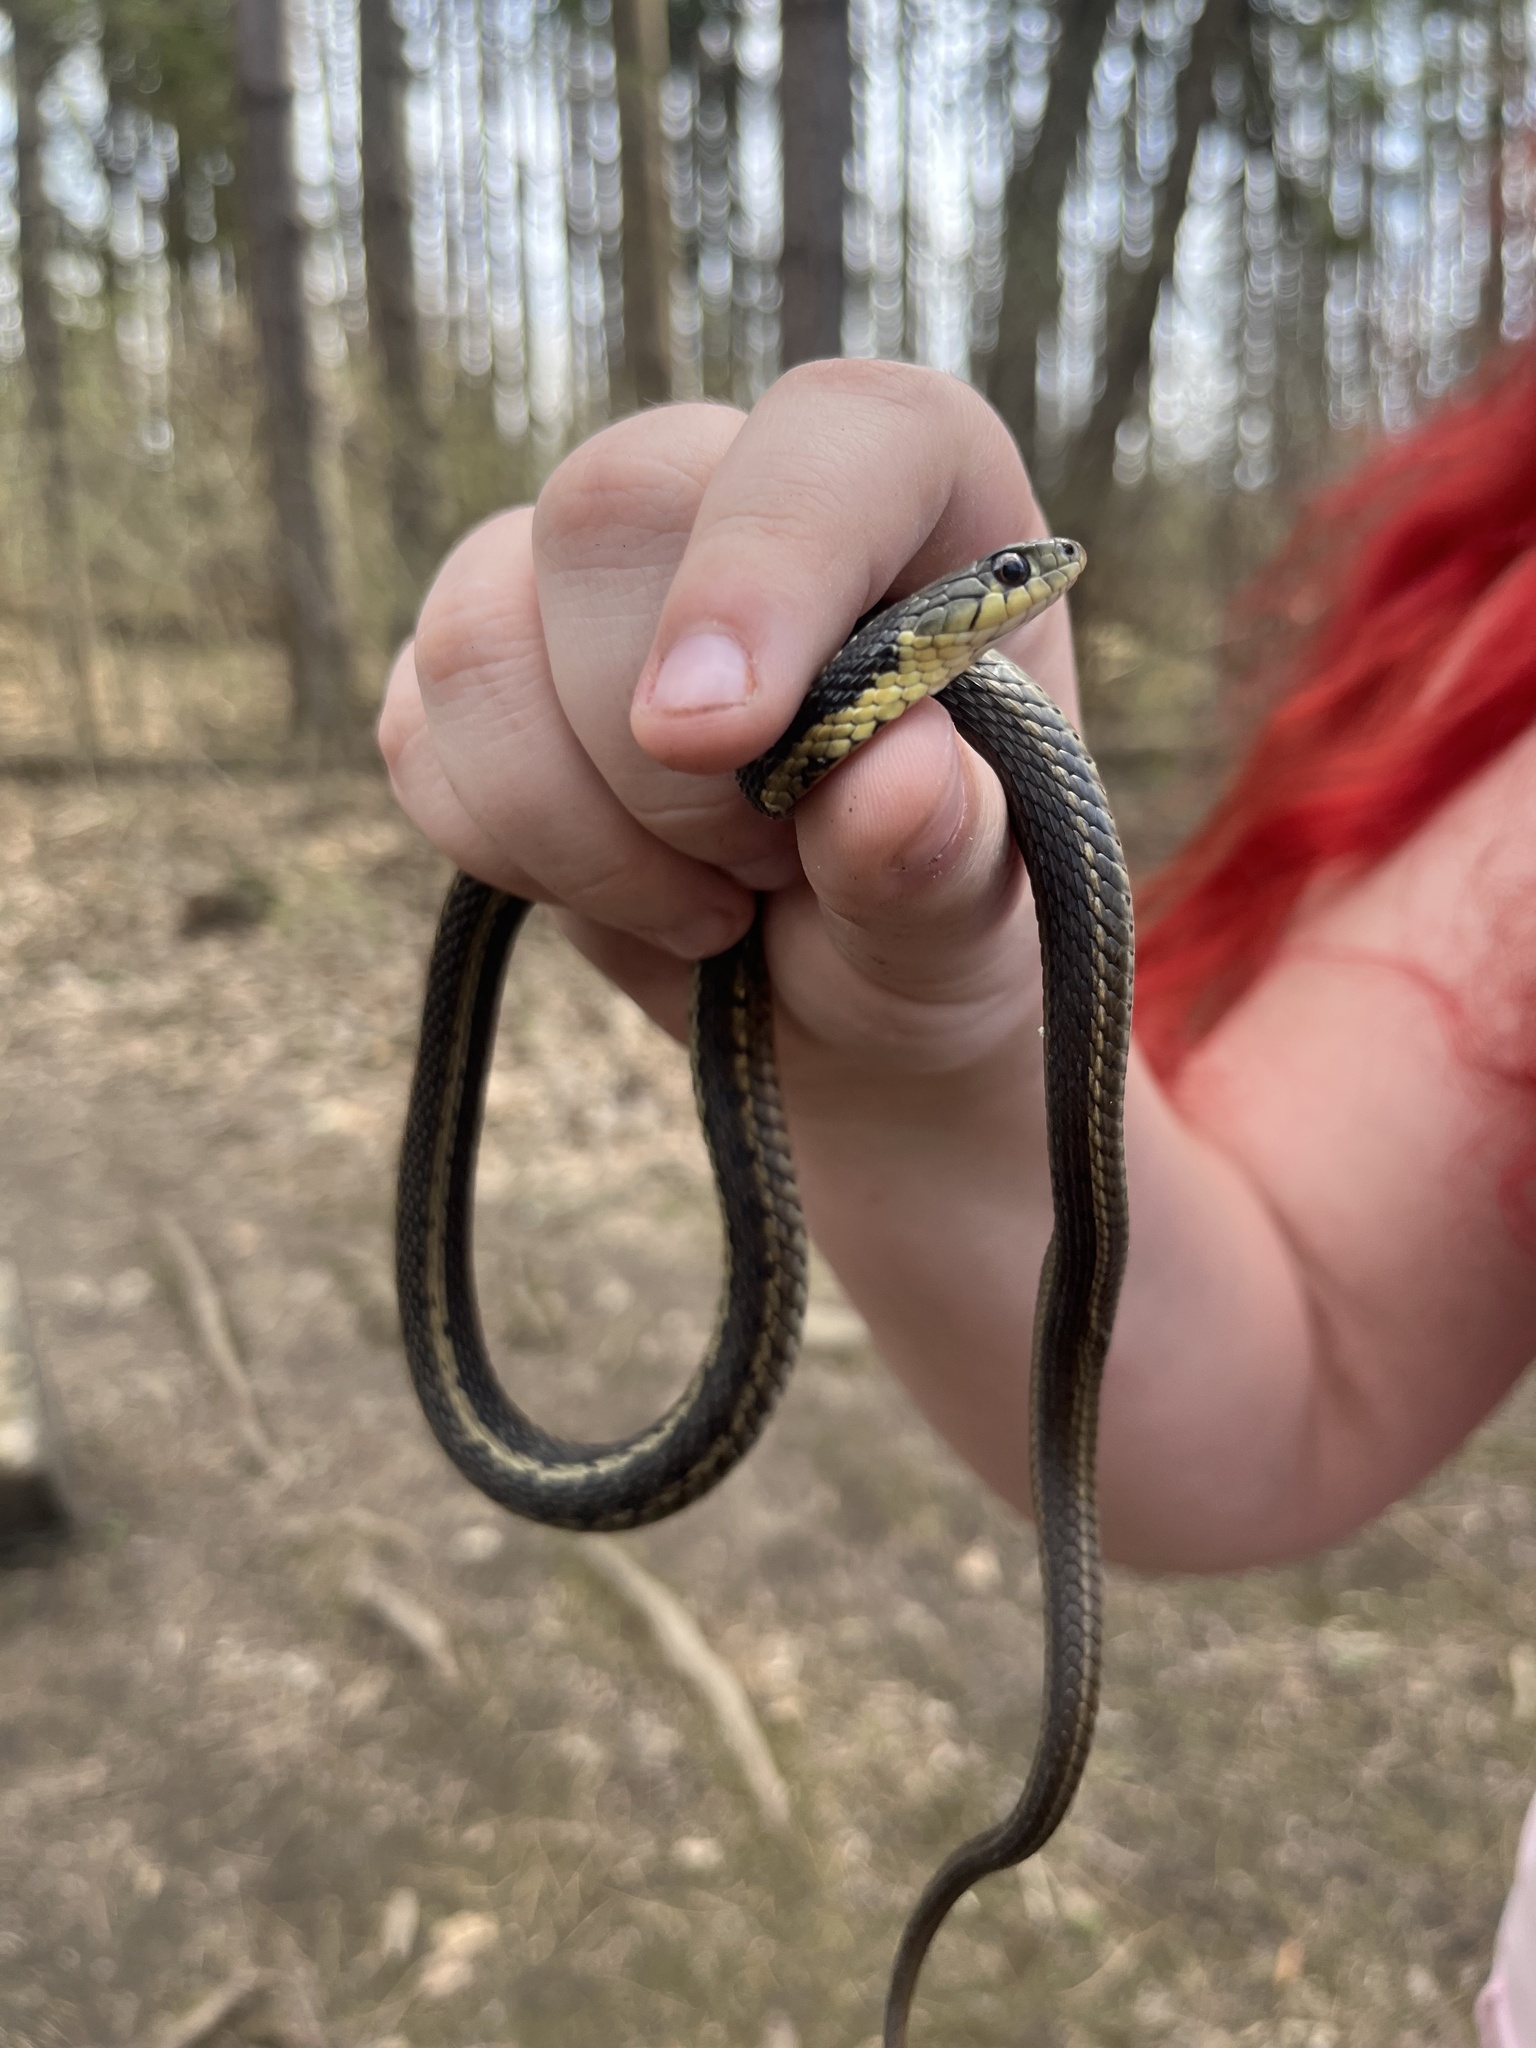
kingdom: Animalia
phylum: Chordata
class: Squamata
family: Colubridae
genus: Thamnophis
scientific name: Thamnophis sirtalis
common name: Common garter snake
